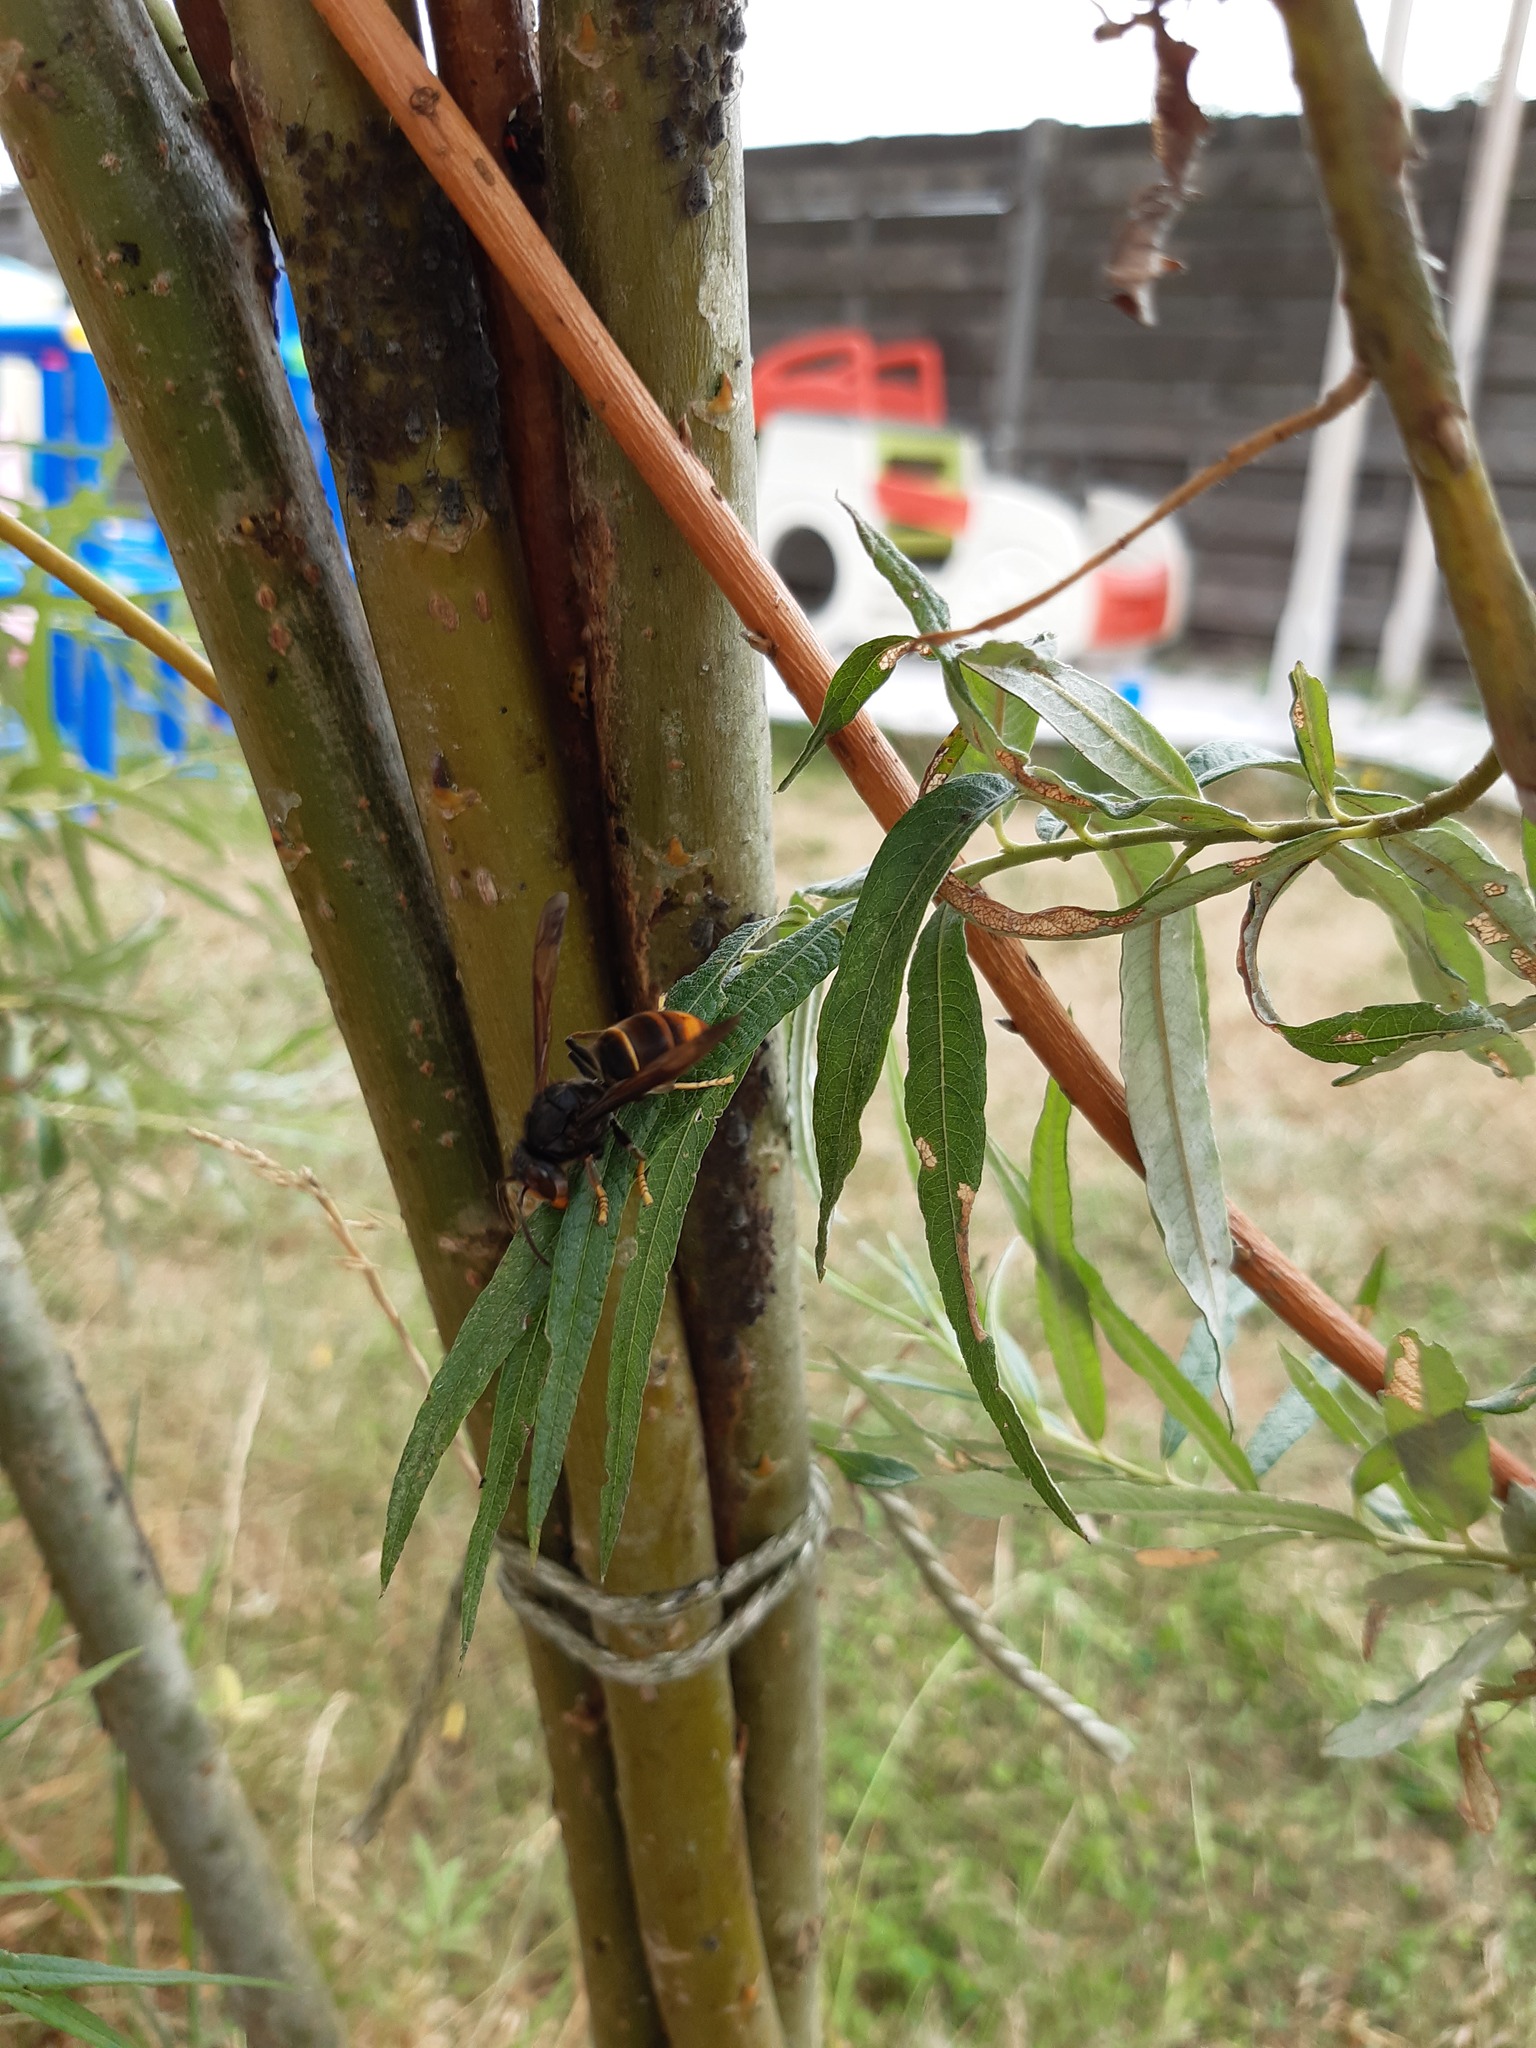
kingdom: Animalia
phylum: Arthropoda
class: Insecta
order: Hymenoptera
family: Vespidae
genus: Vespa
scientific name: Vespa velutina
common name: Asian hornet
